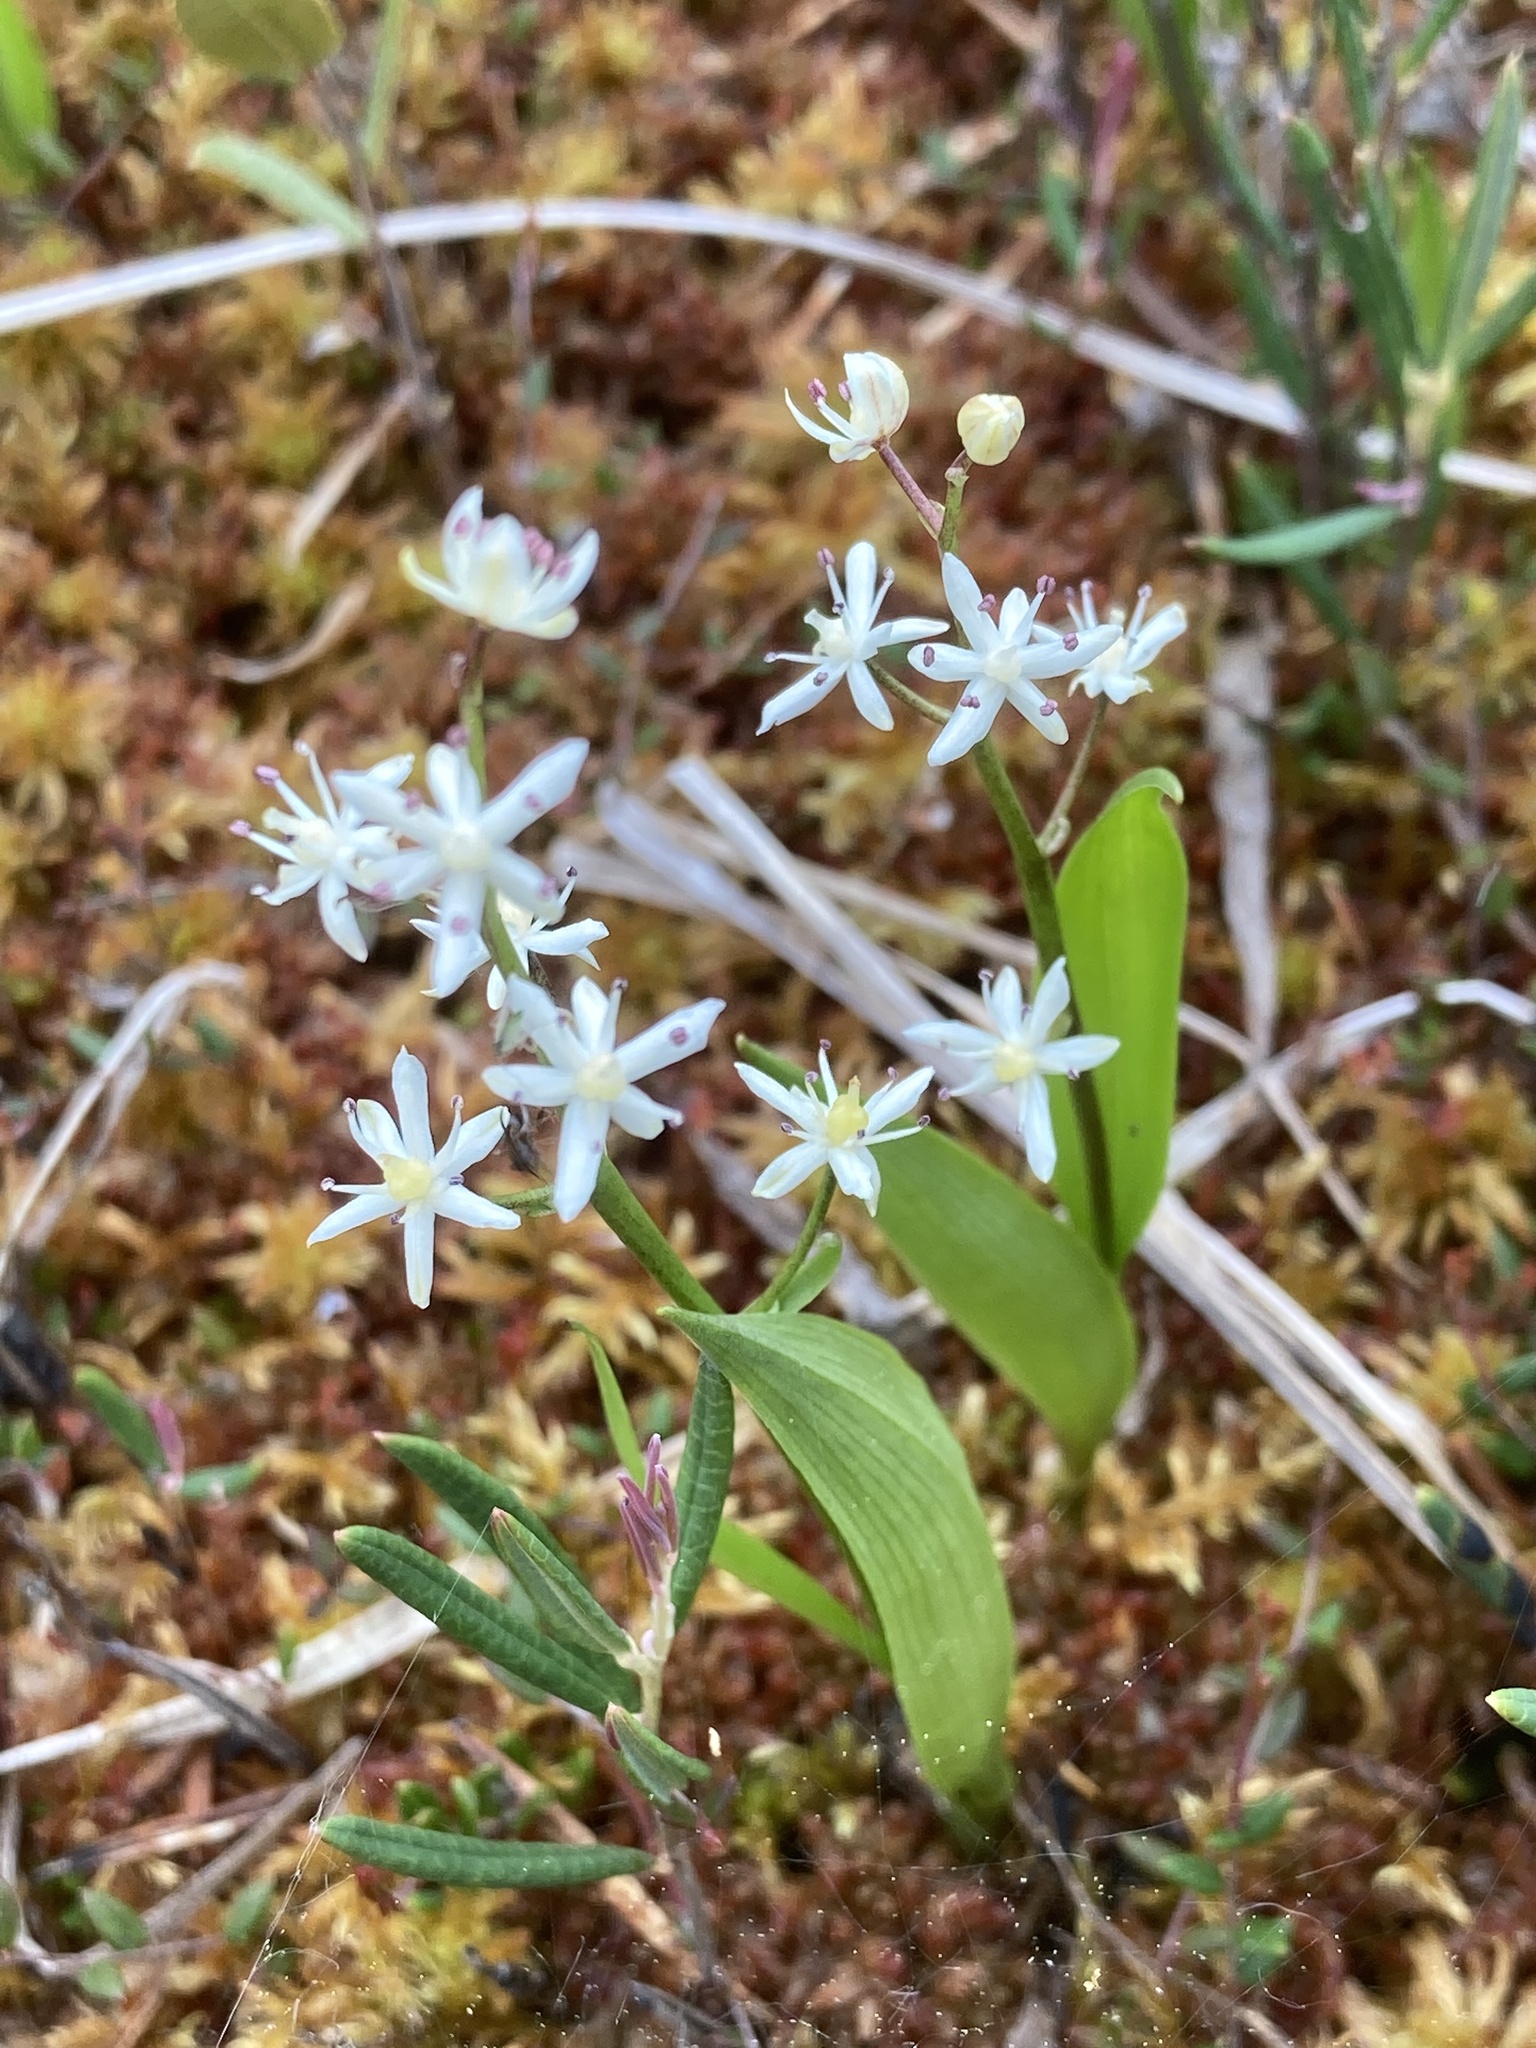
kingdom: Plantae
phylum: Tracheophyta
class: Liliopsida
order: Asparagales
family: Asparagaceae
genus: Maianthemum
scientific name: Maianthemum trifolium
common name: Swamp false solomon's seal
